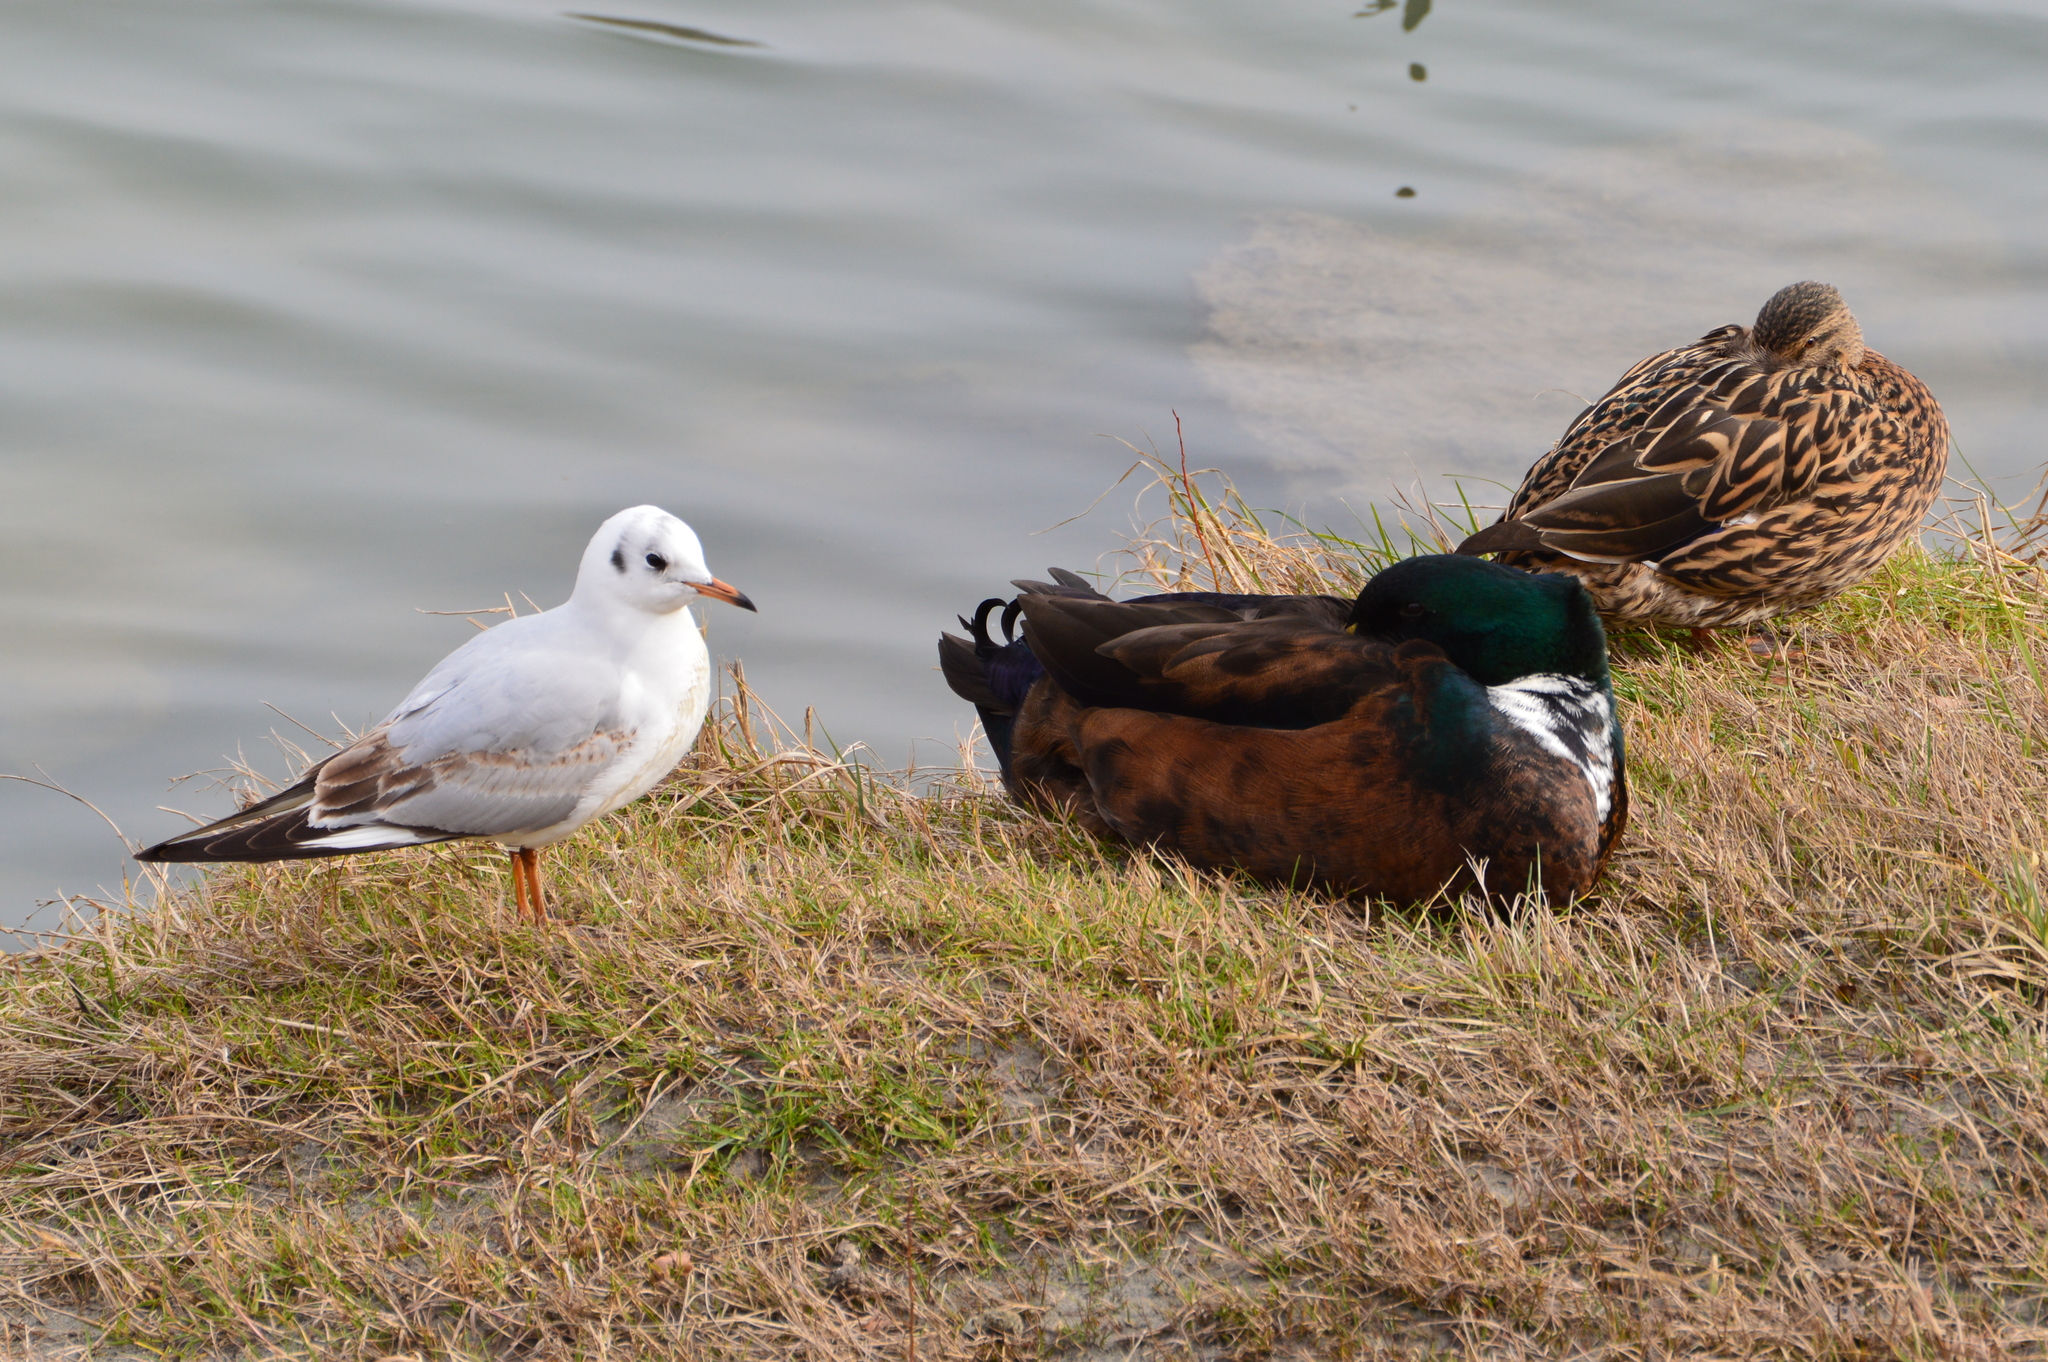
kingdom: Animalia
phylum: Chordata
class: Aves
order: Anseriformes
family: Anatidae
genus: Anas
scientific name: Anas platyrhynchos
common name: Mallard
